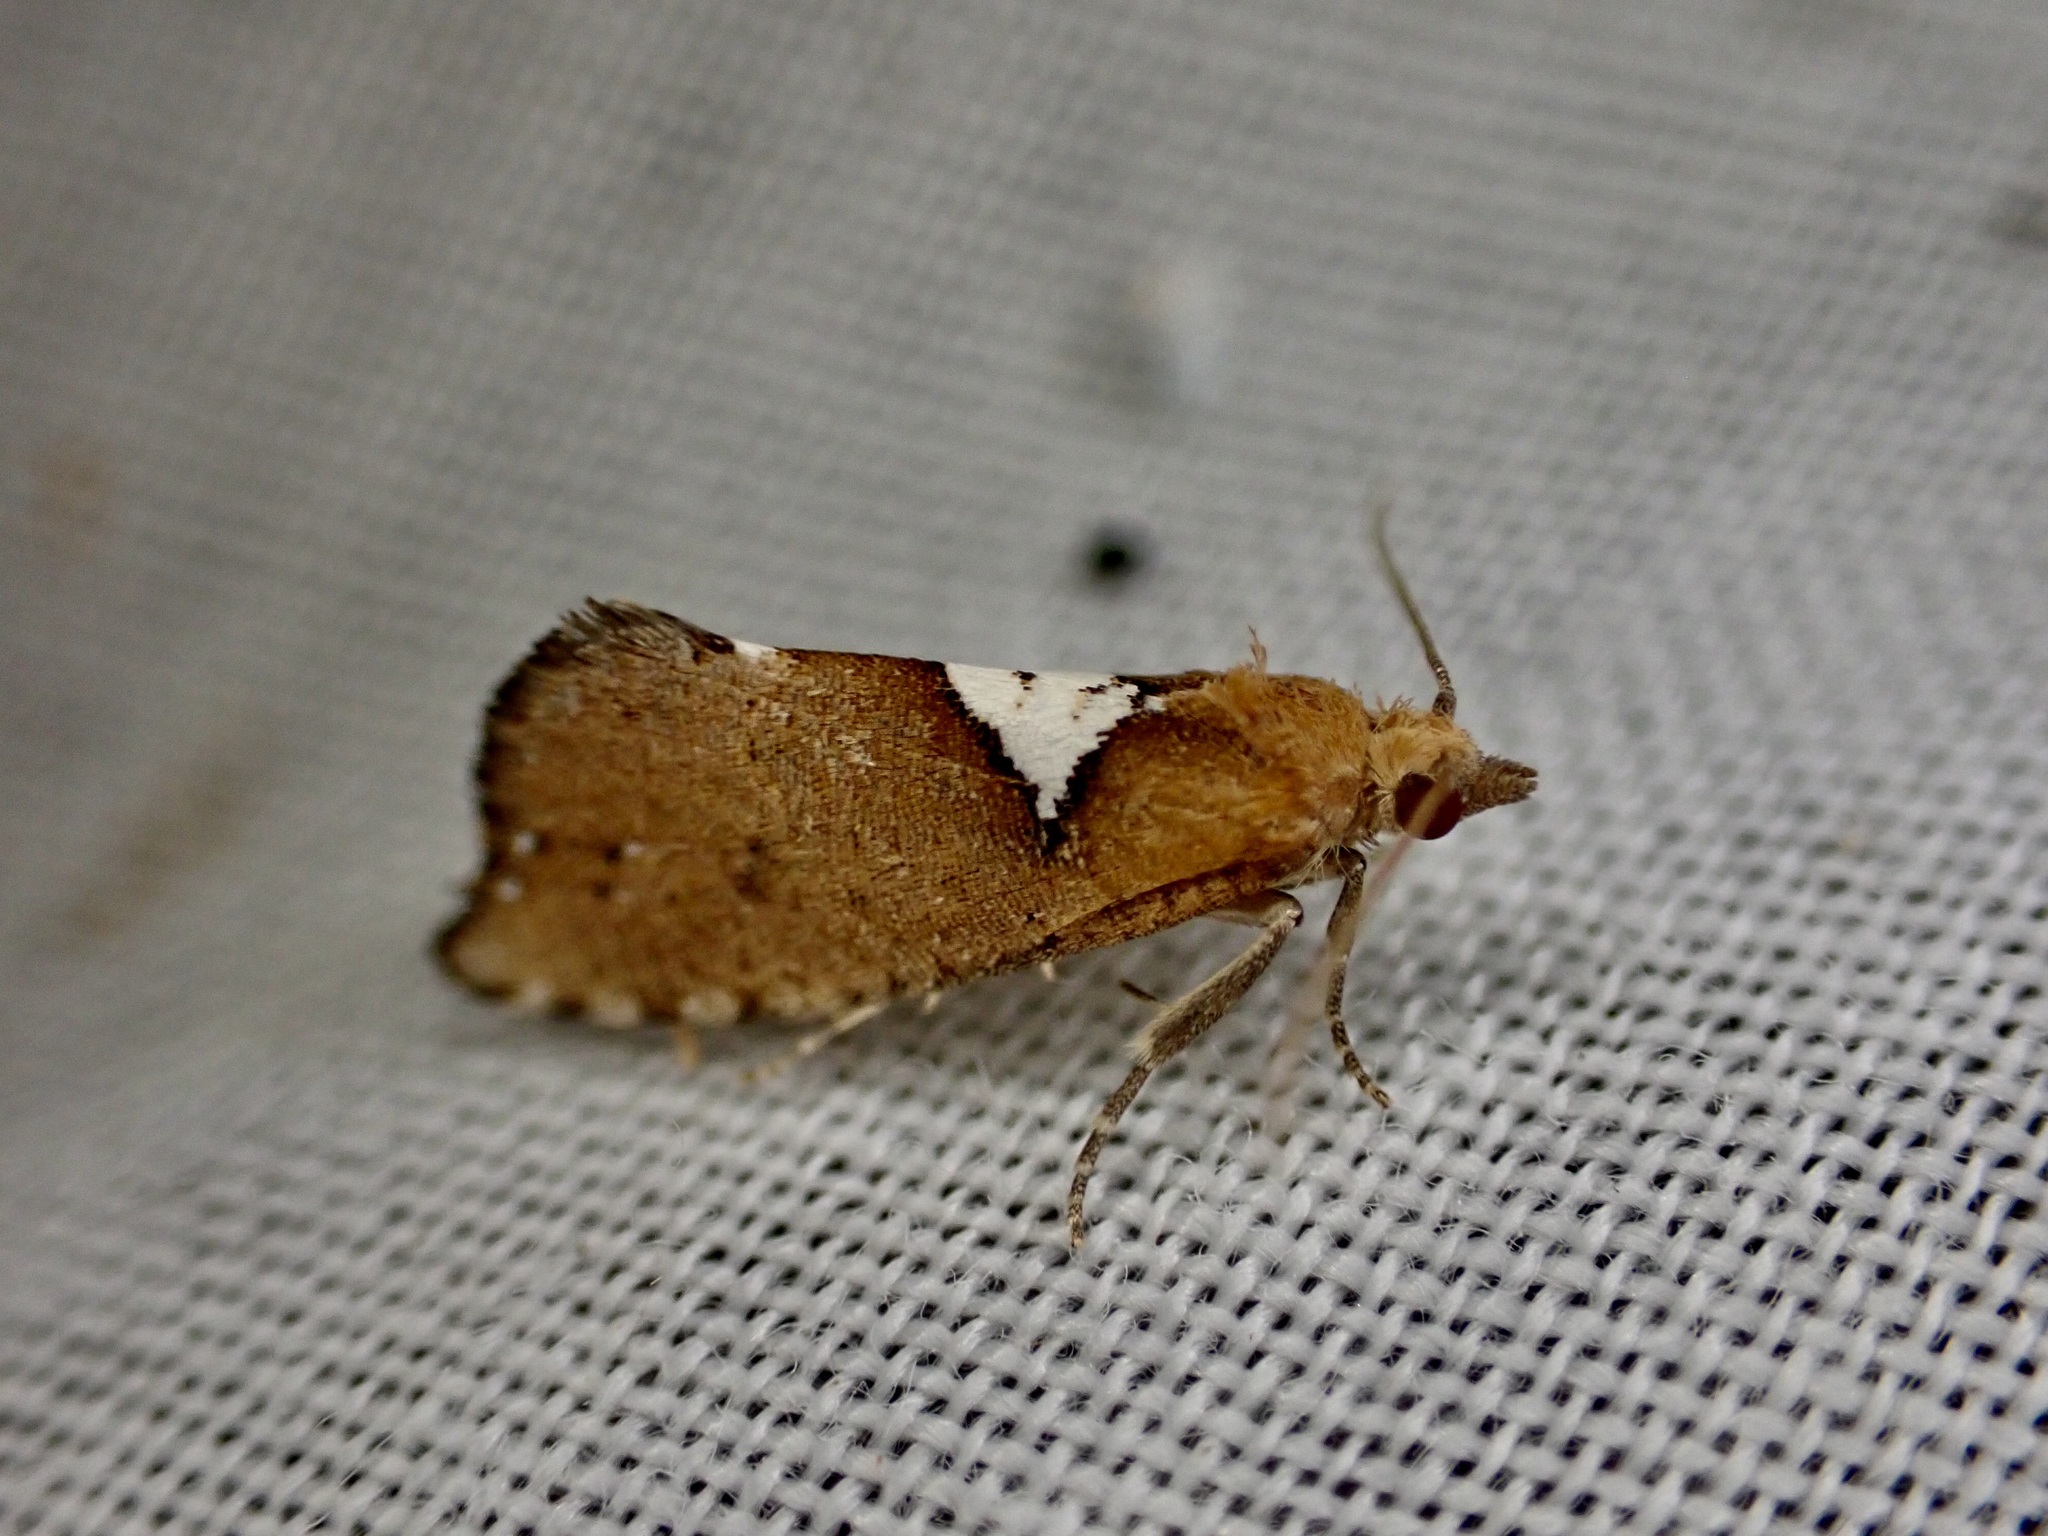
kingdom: Animalia
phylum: Arthropoda
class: Insecta
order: Lepidoptera
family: Tortricidae
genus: Pyrgotis
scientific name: Pyrgotis pyramidias
